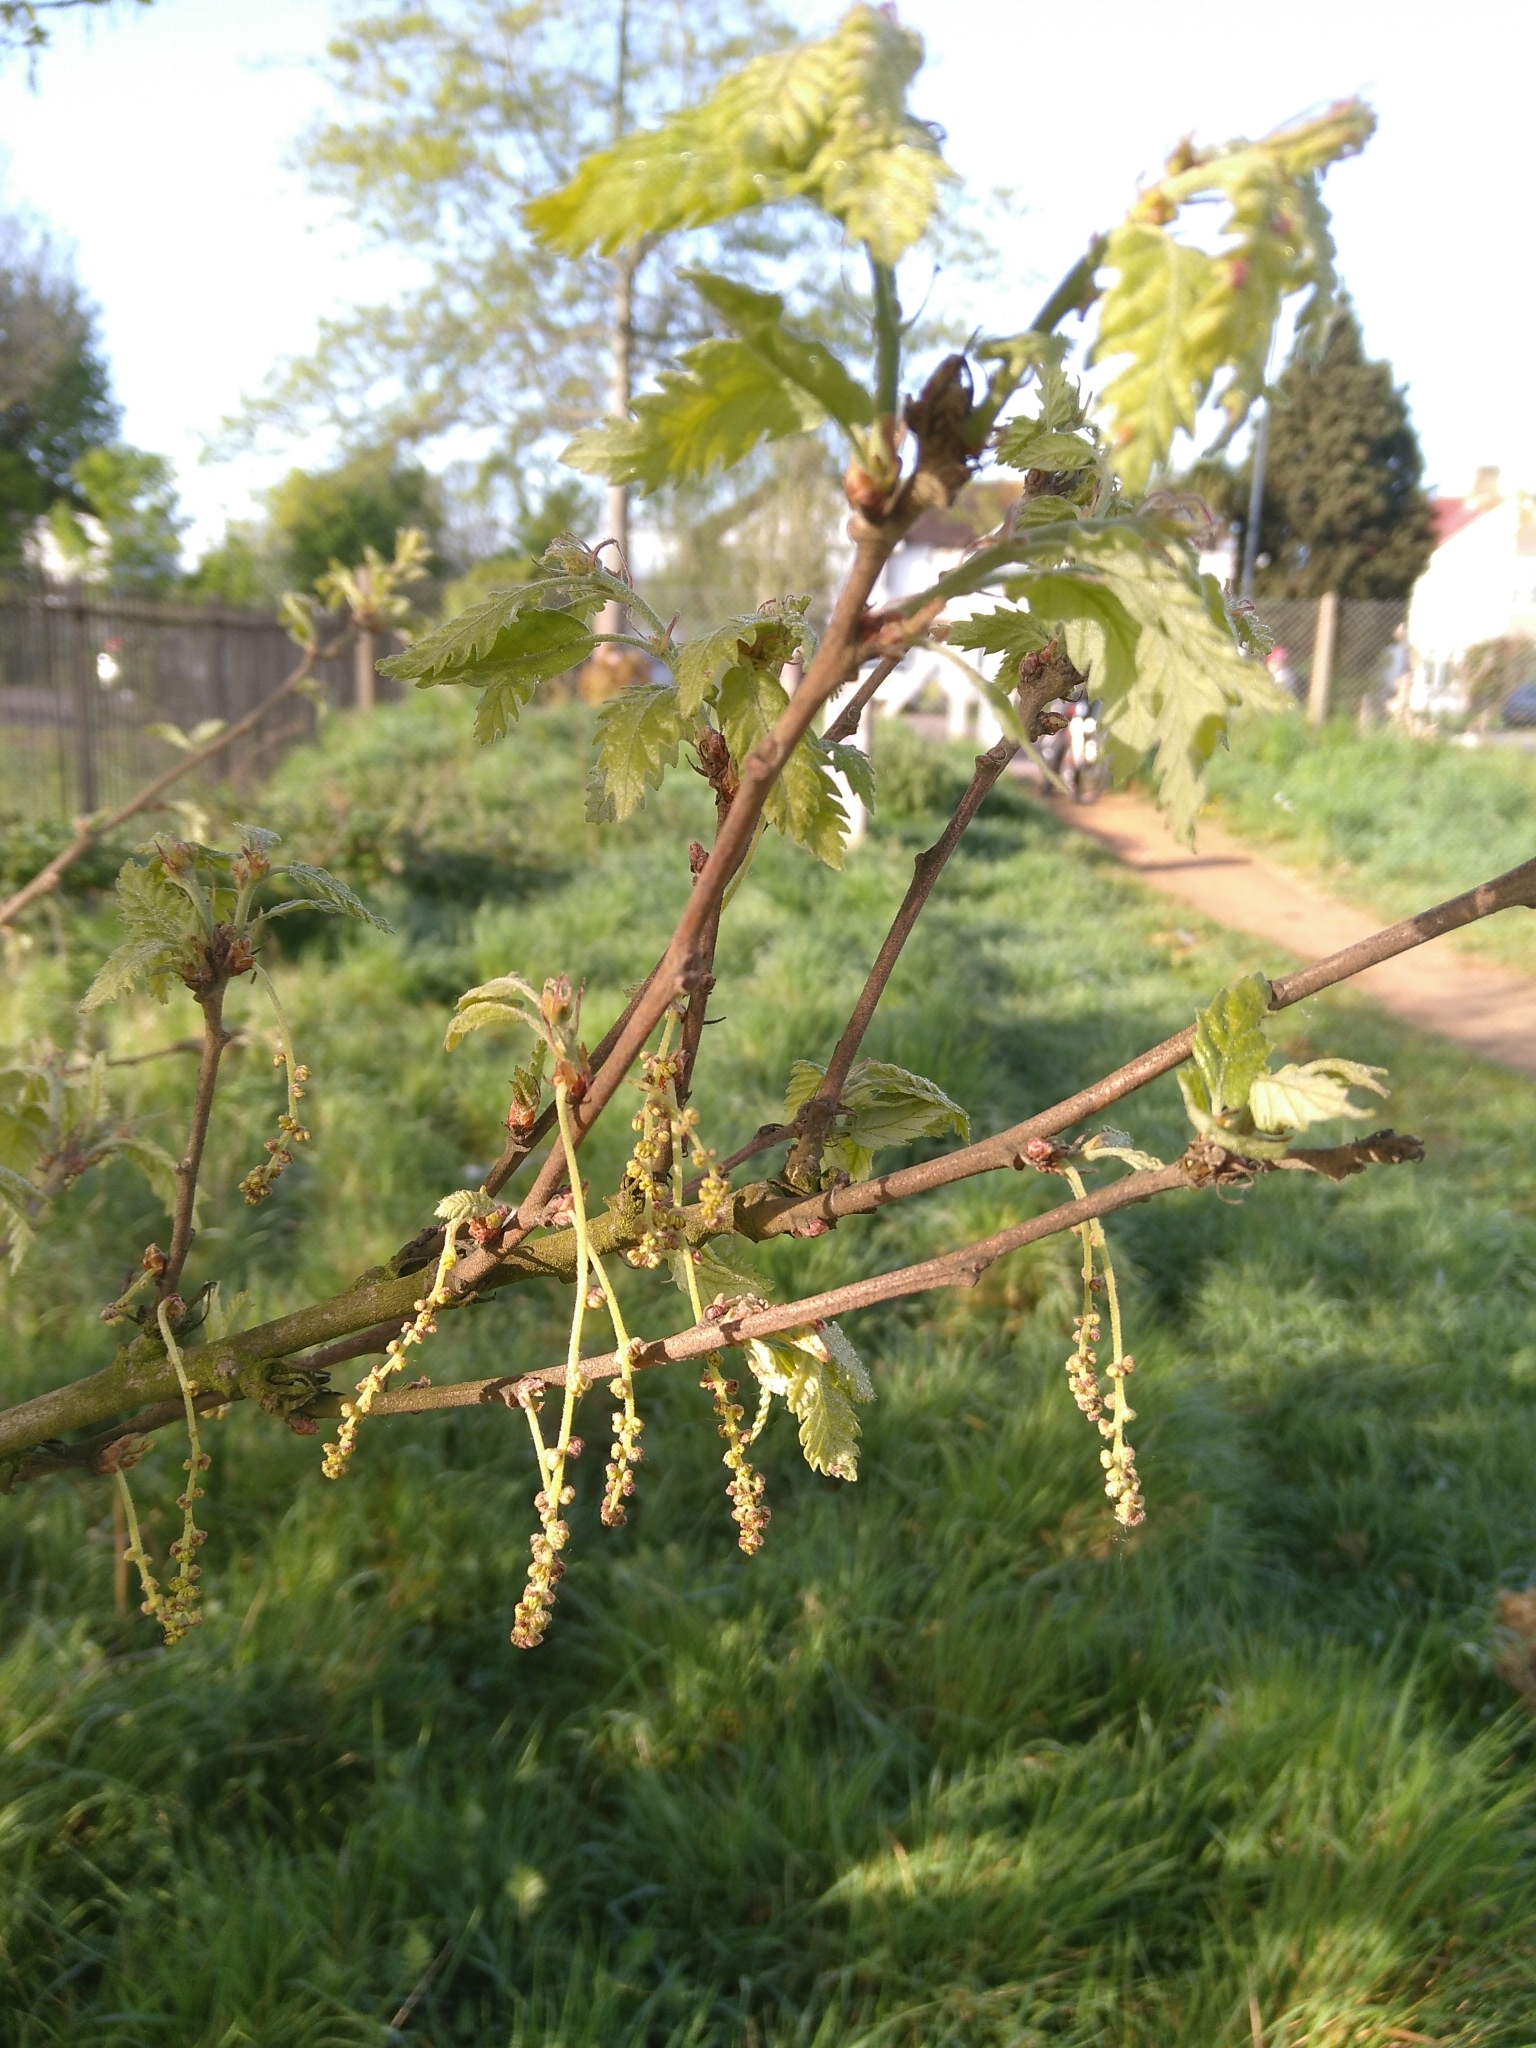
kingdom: Plantae
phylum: Tracheophyta
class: Magnoliopsida
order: Fagales
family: Fagaceae
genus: Quercus
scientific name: Quercus cerris
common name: Turkey oak
